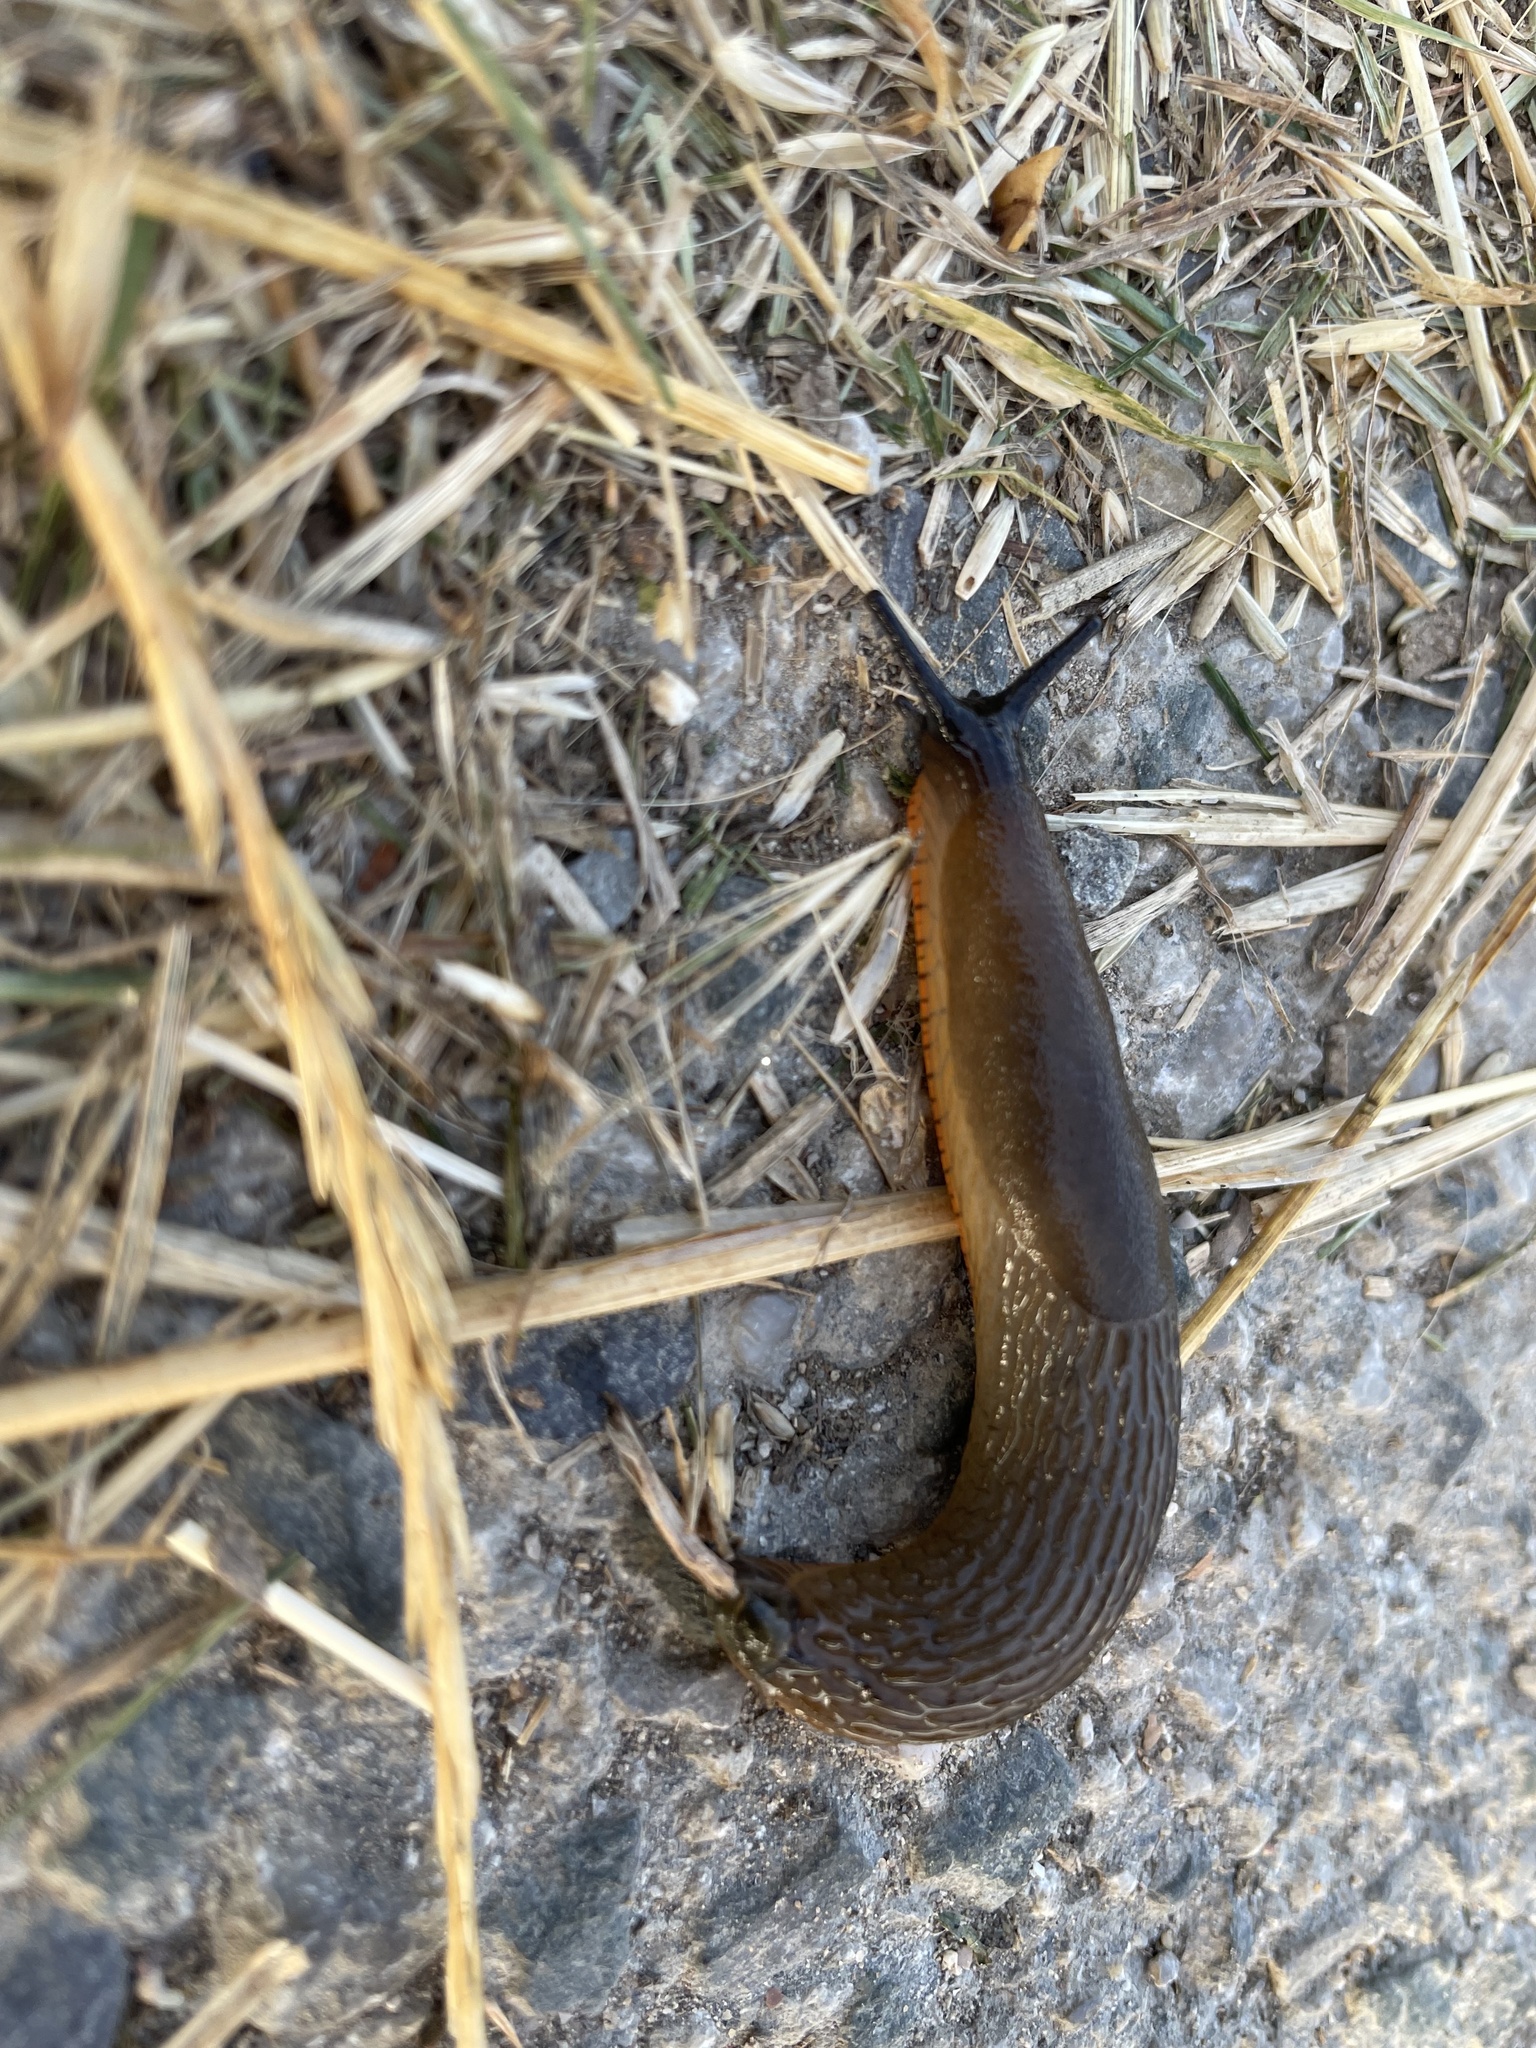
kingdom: Animalia
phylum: Mollusca
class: Gastropoda
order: Stylommatophora
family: Arionidae
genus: Arion
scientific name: Arion rufus
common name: Chocolate arion
